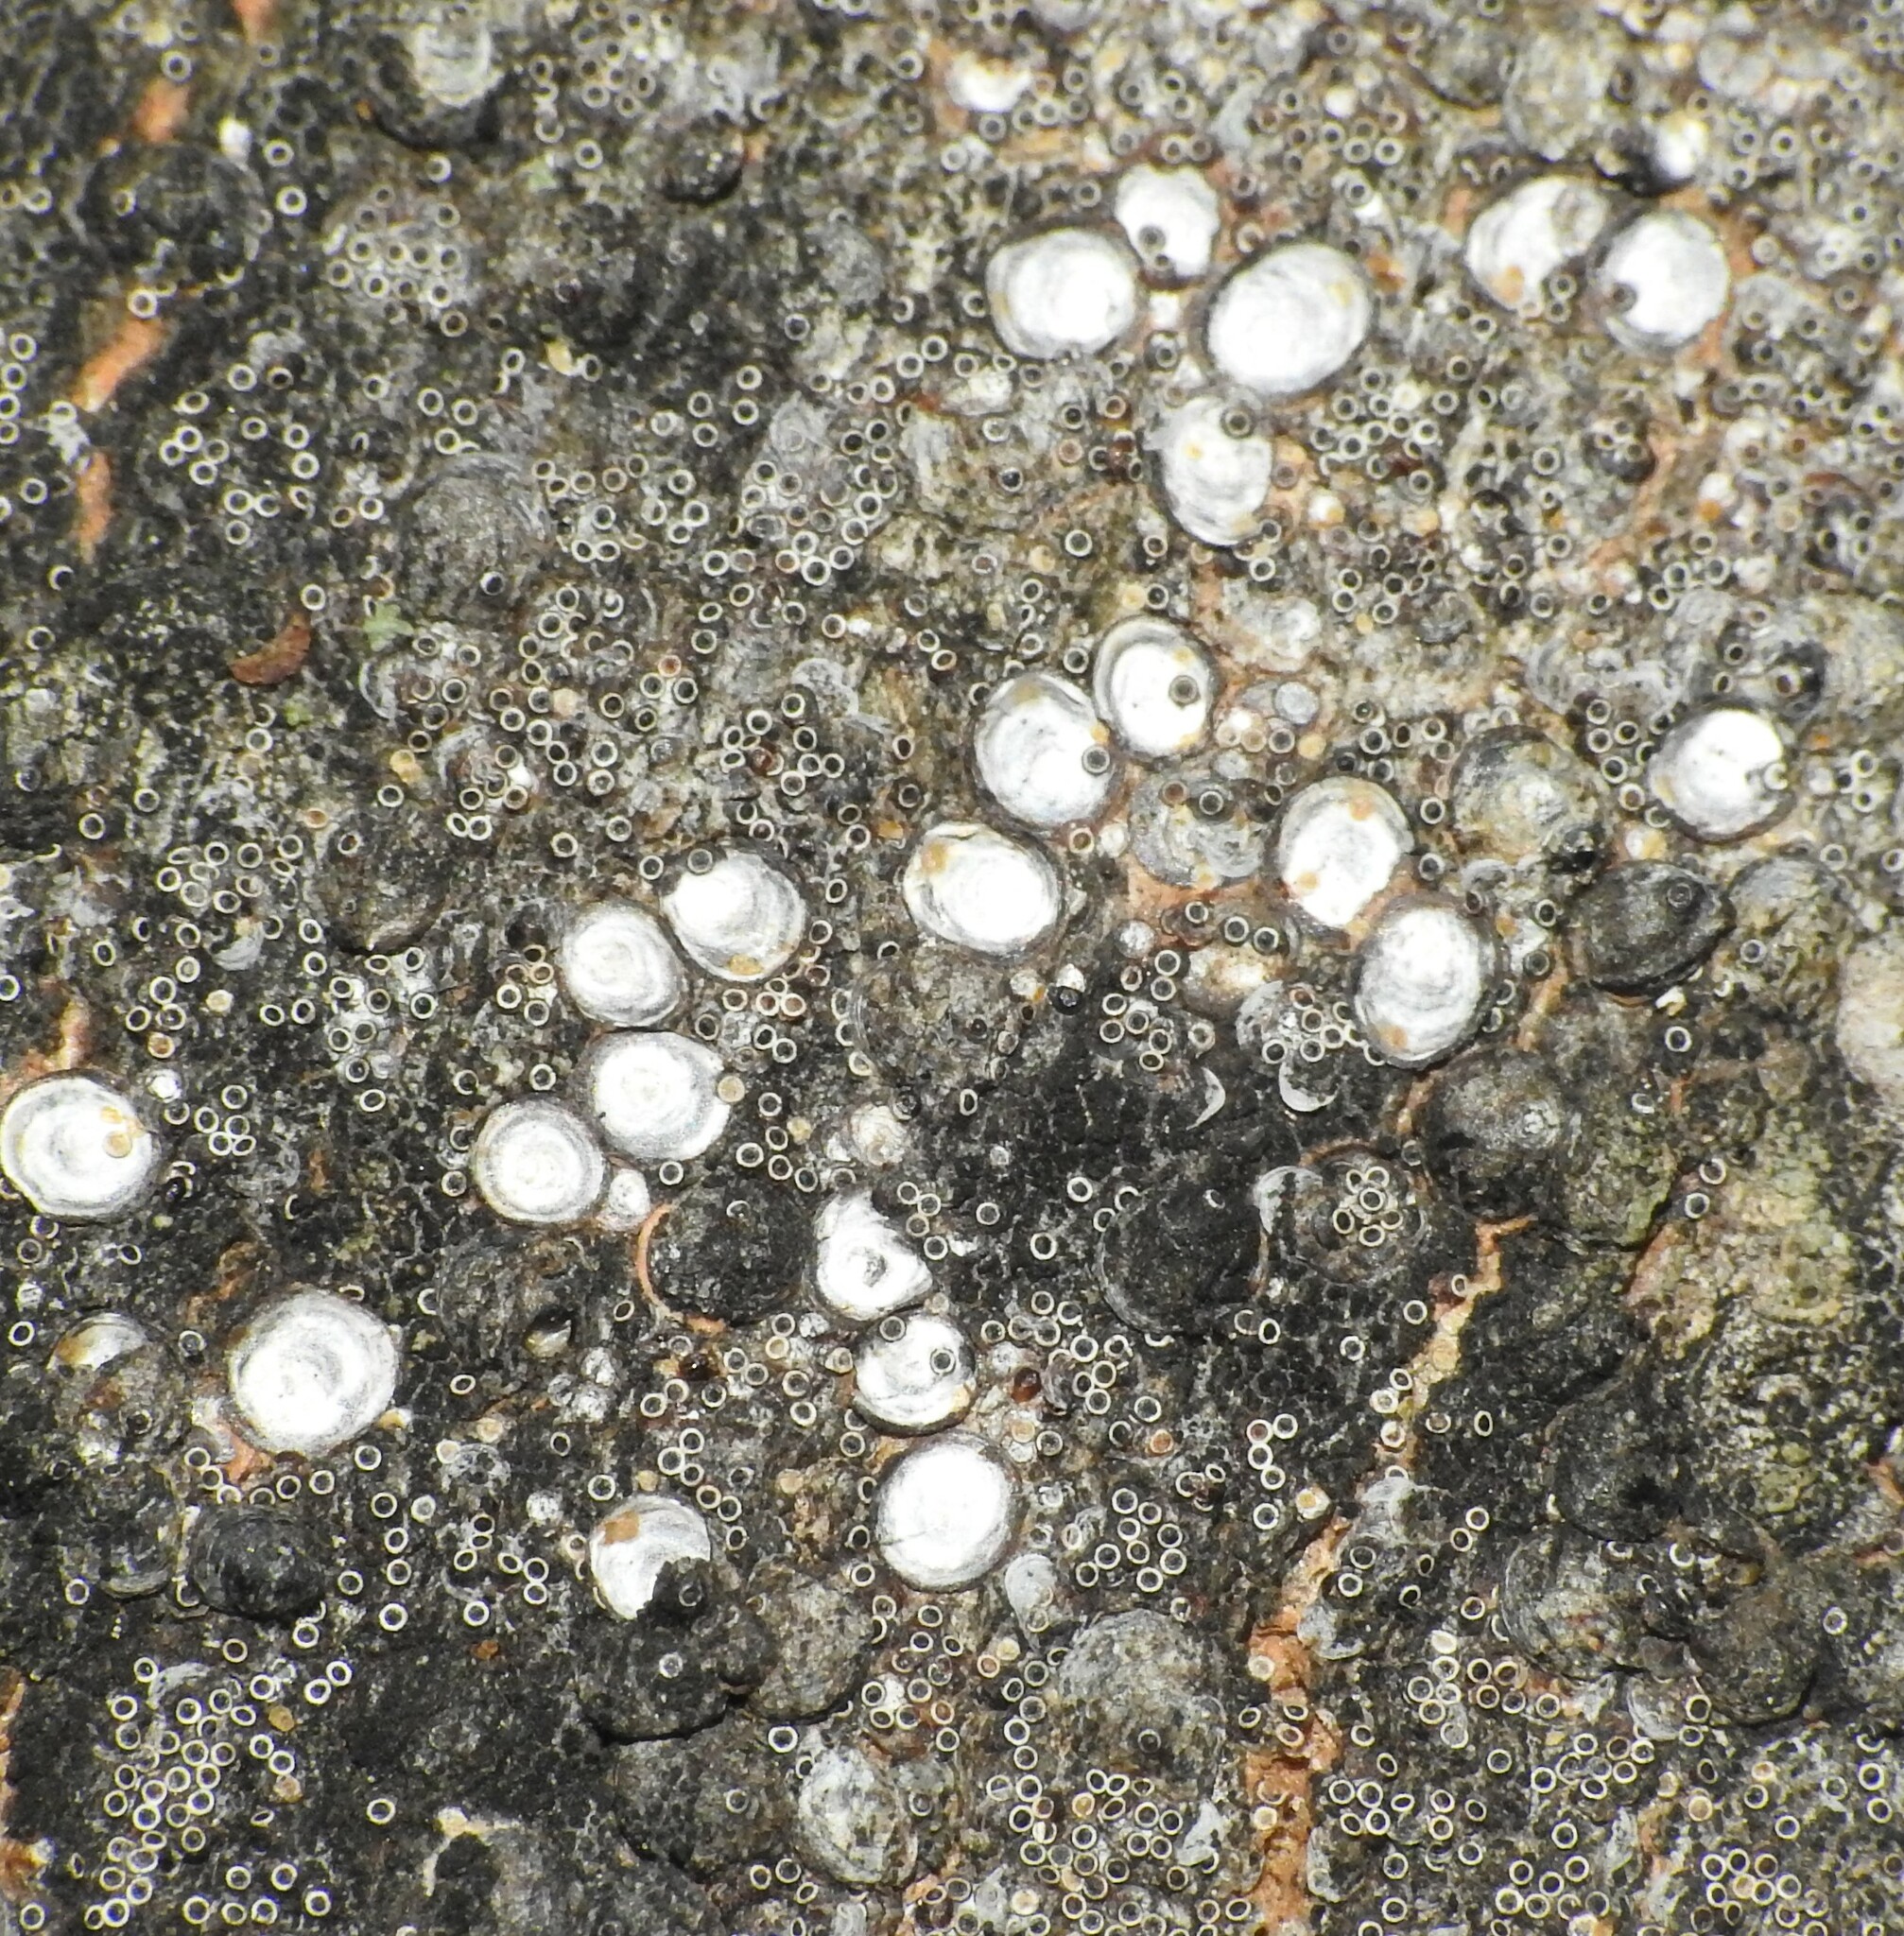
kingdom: Fungi
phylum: Ascomycota
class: Lecanoromycetes
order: Lecanorales
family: Lecanoraceae
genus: Polyozosia
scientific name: Polyozosia dispersa
